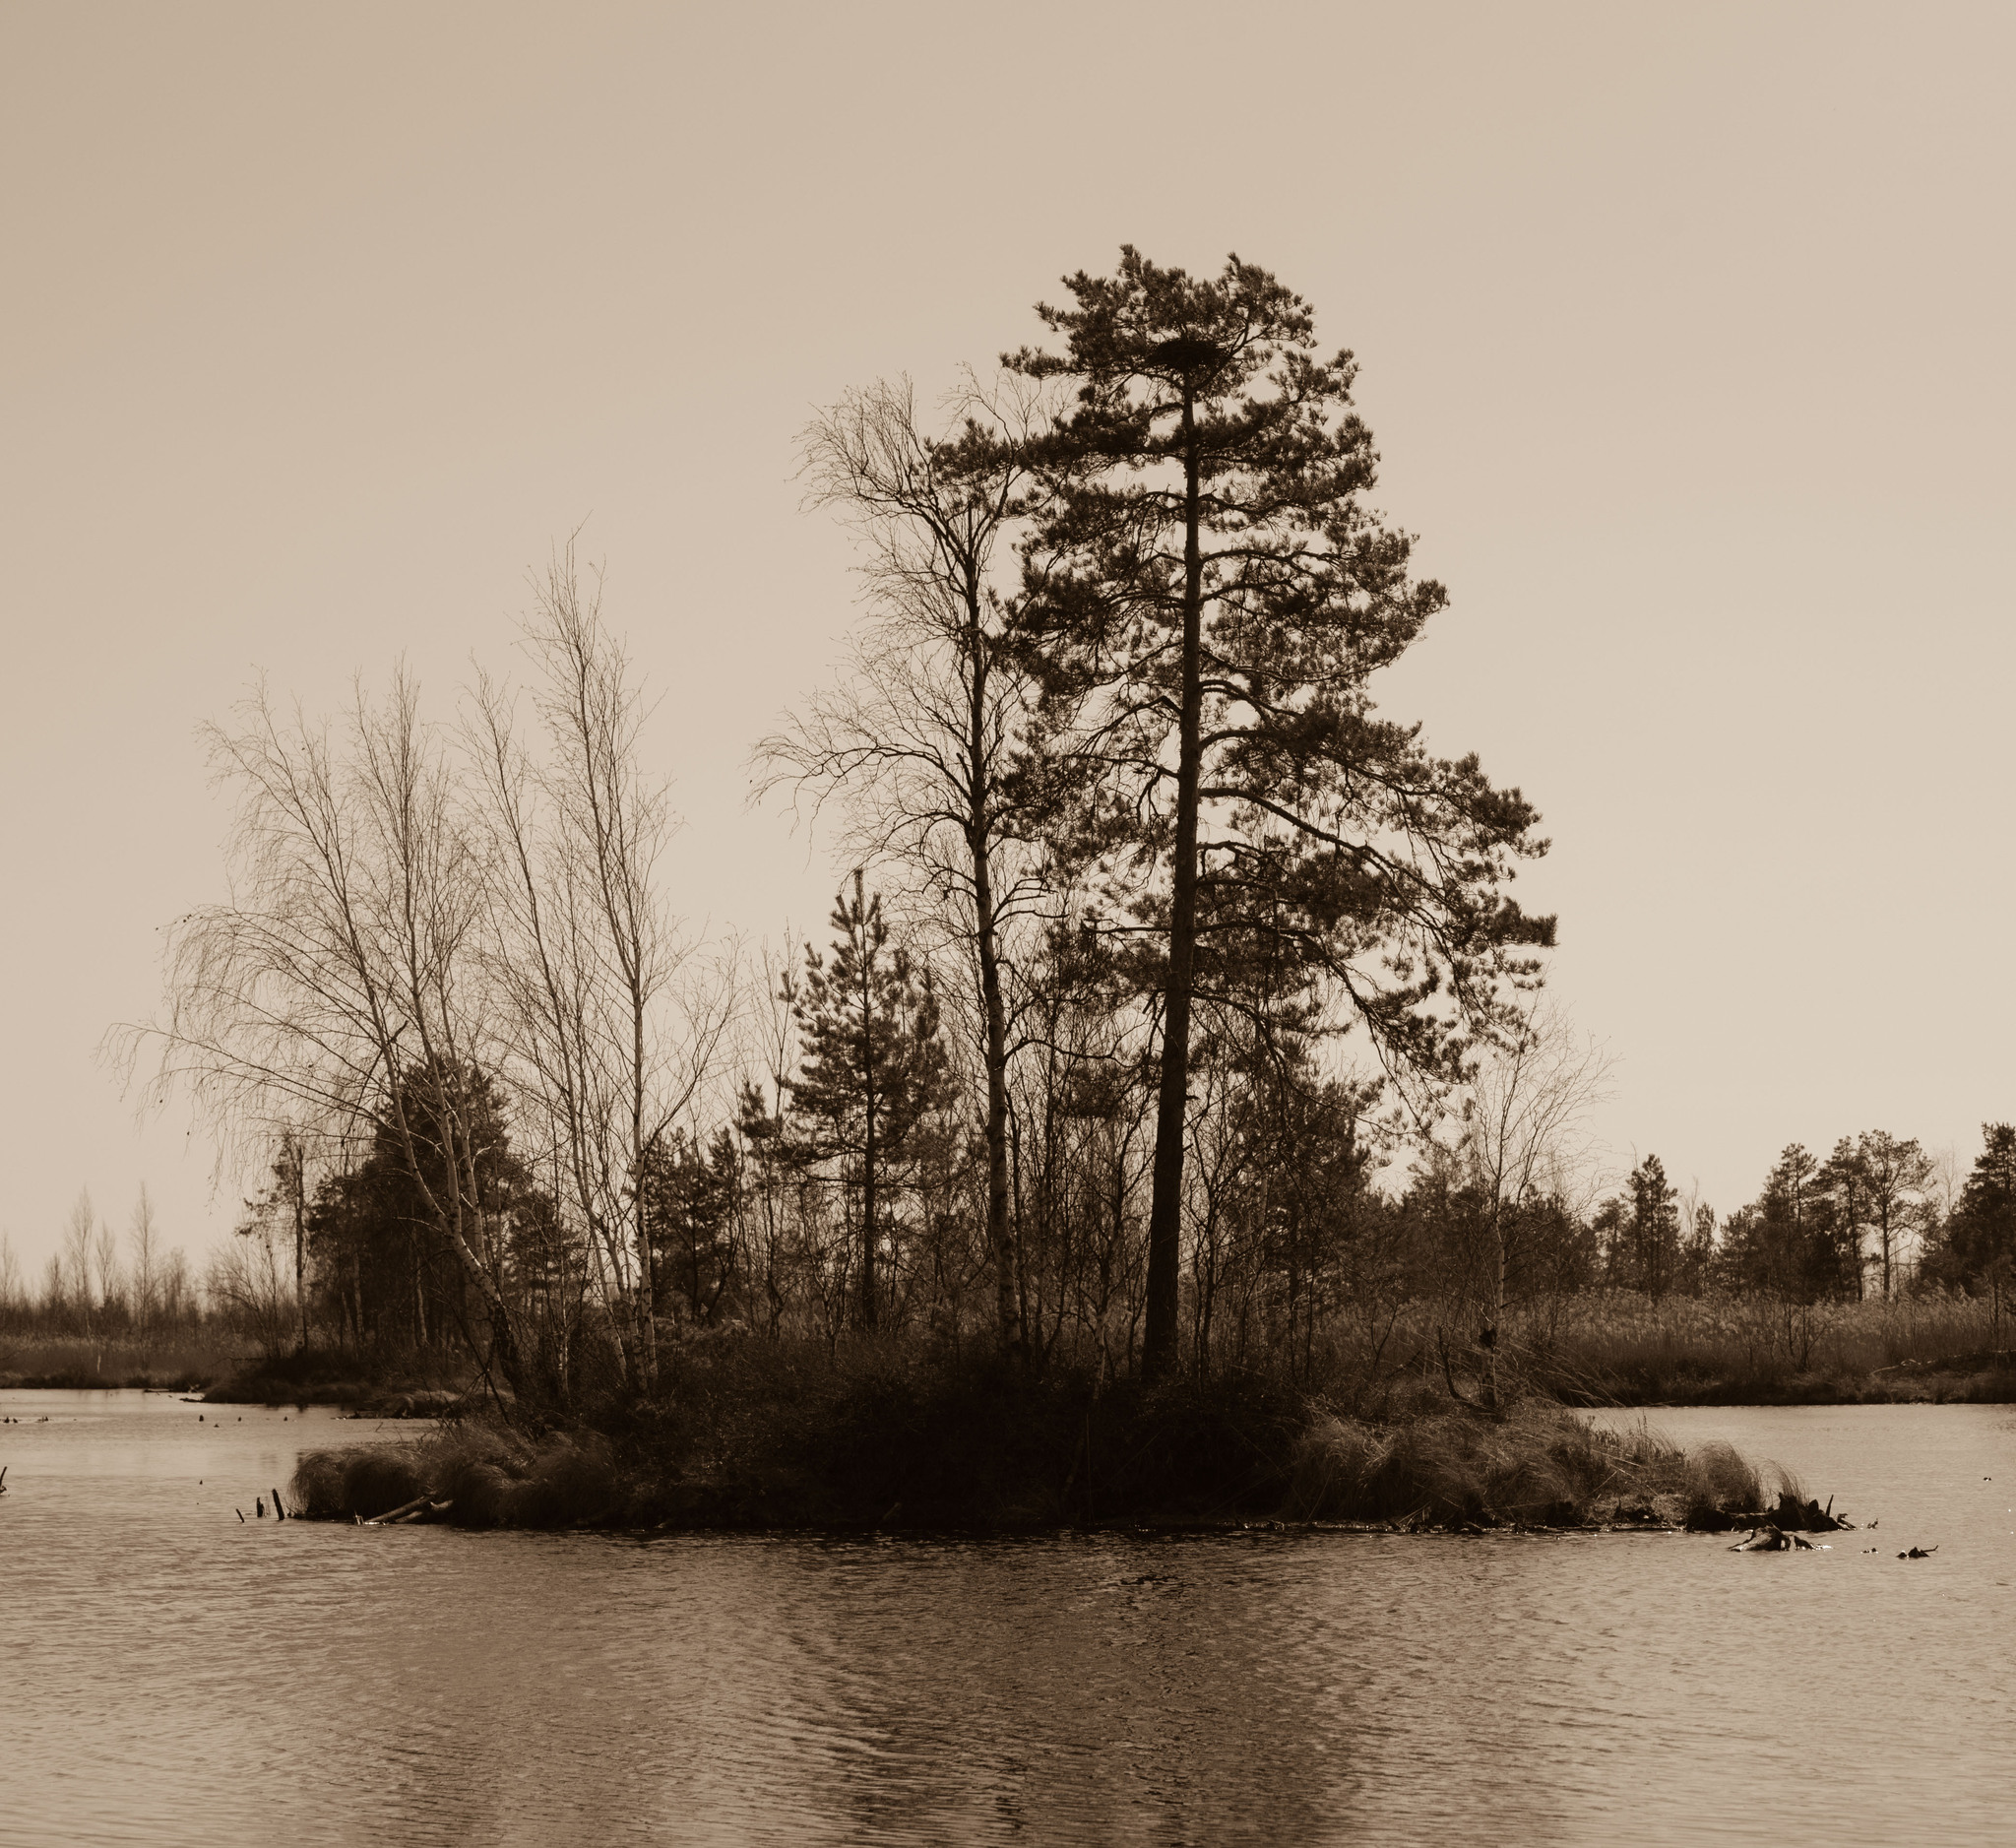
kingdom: Plantae
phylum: Tracheophyta
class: Pinopsida
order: Pinales
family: Pinaceae
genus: Pinus
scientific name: Pinus sylvestris
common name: Scots pine
